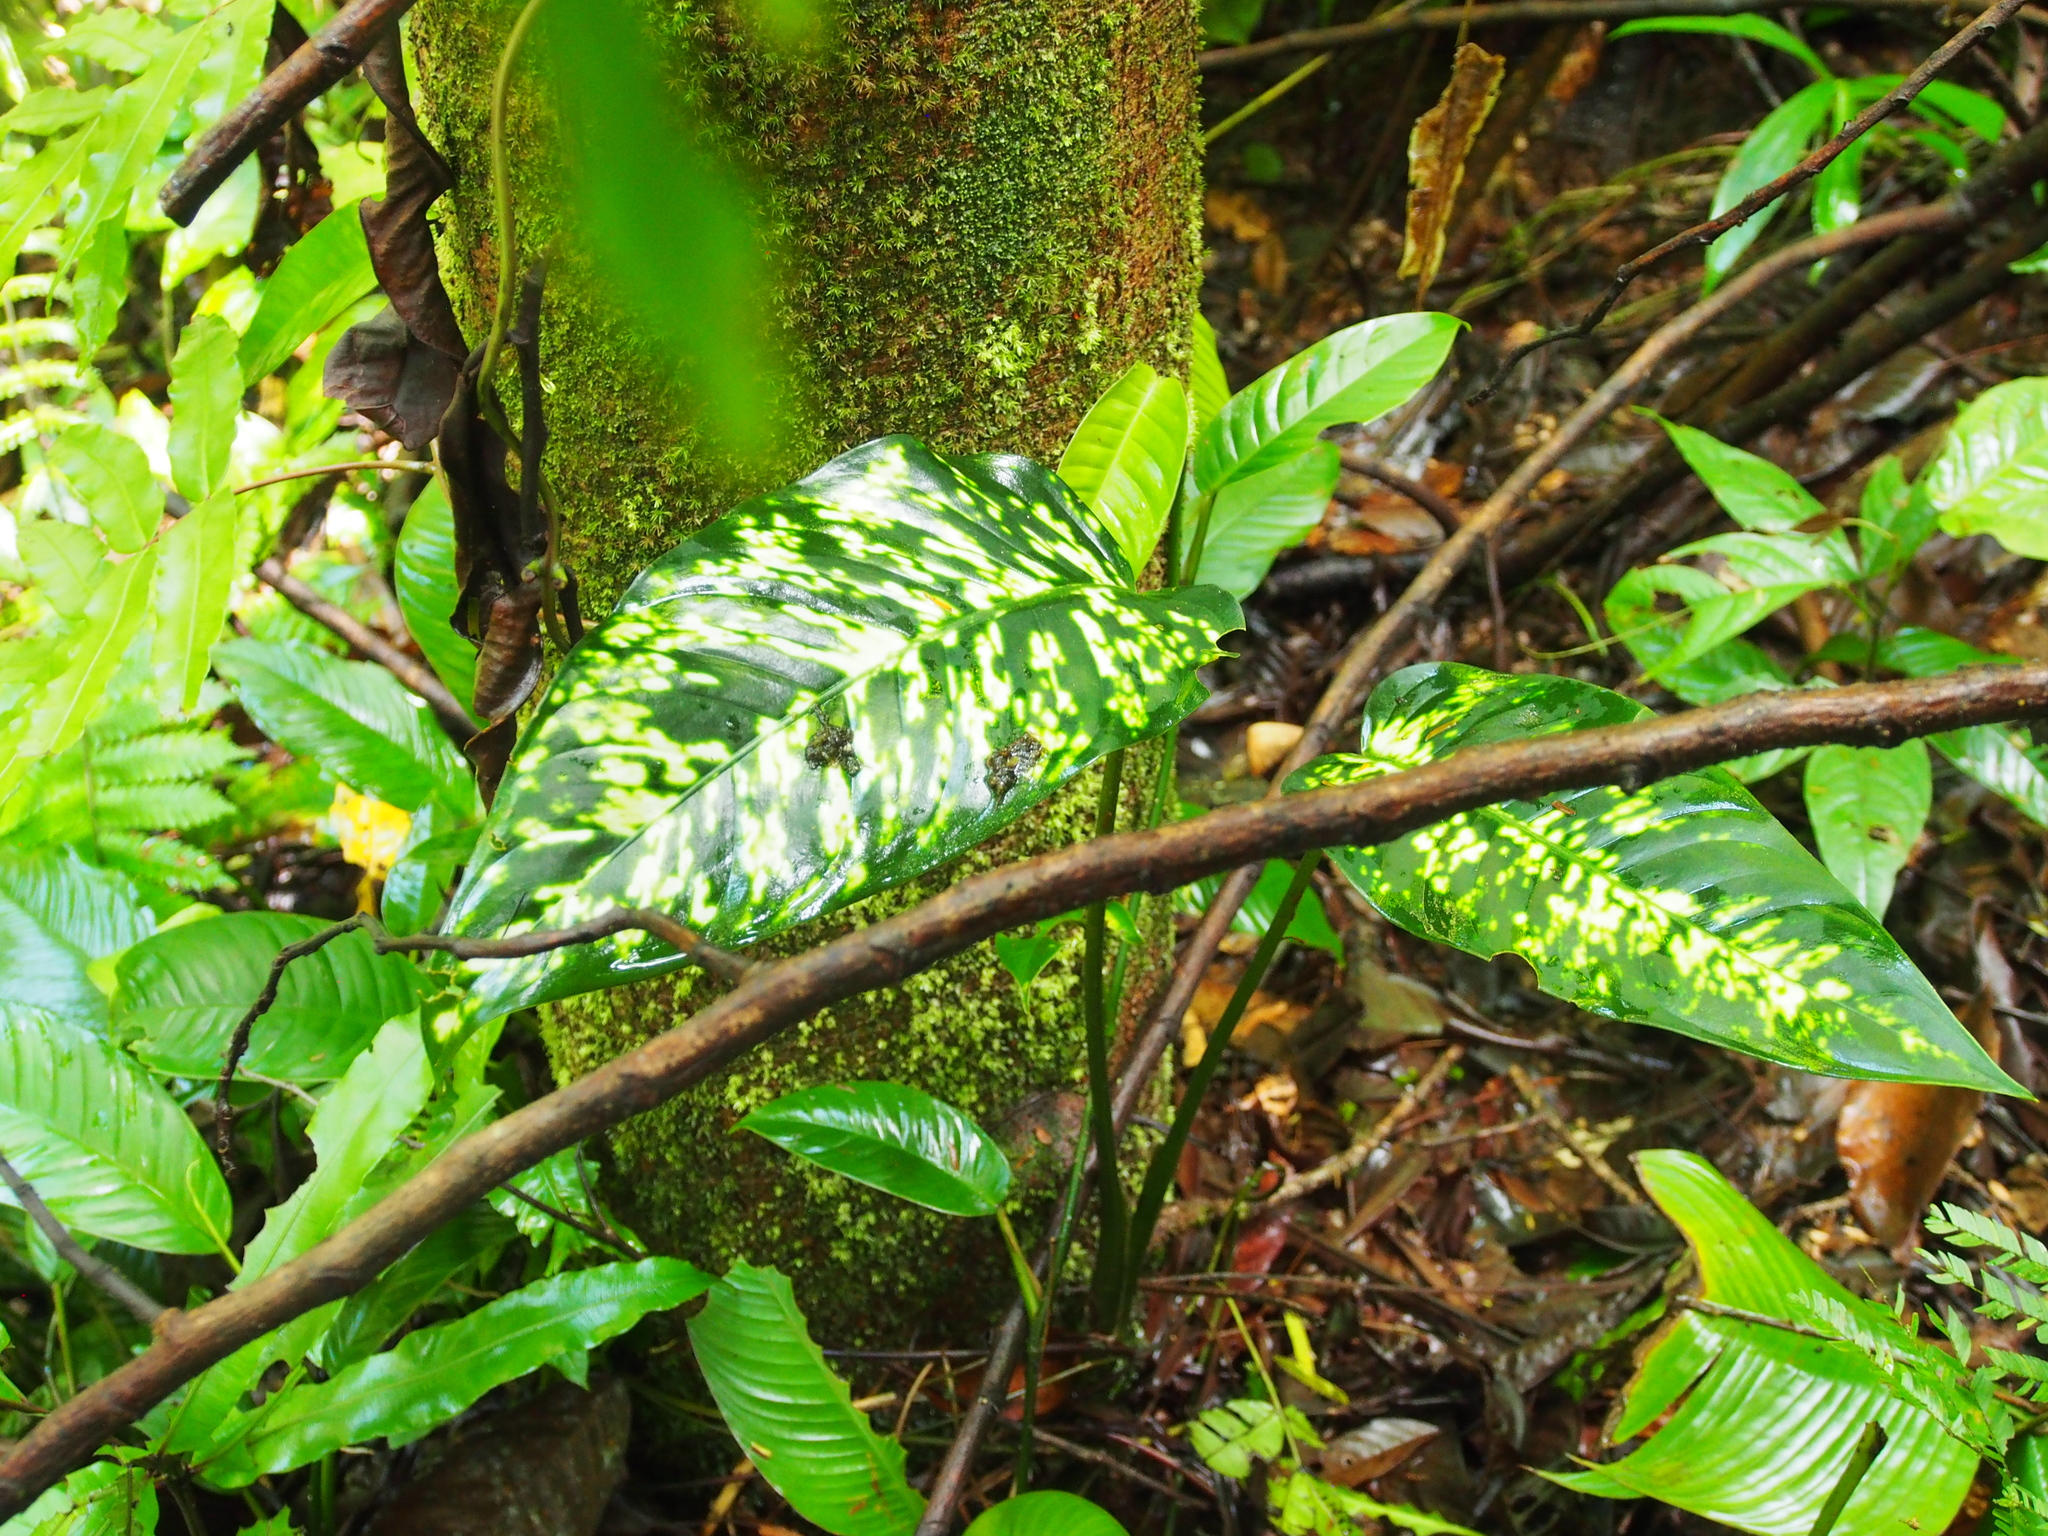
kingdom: Plantae
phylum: Tracheophyta
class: Liliopsida
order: Alismatales
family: Araceae
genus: Dieffenbachia
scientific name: Dieffenbachia grayumiana
